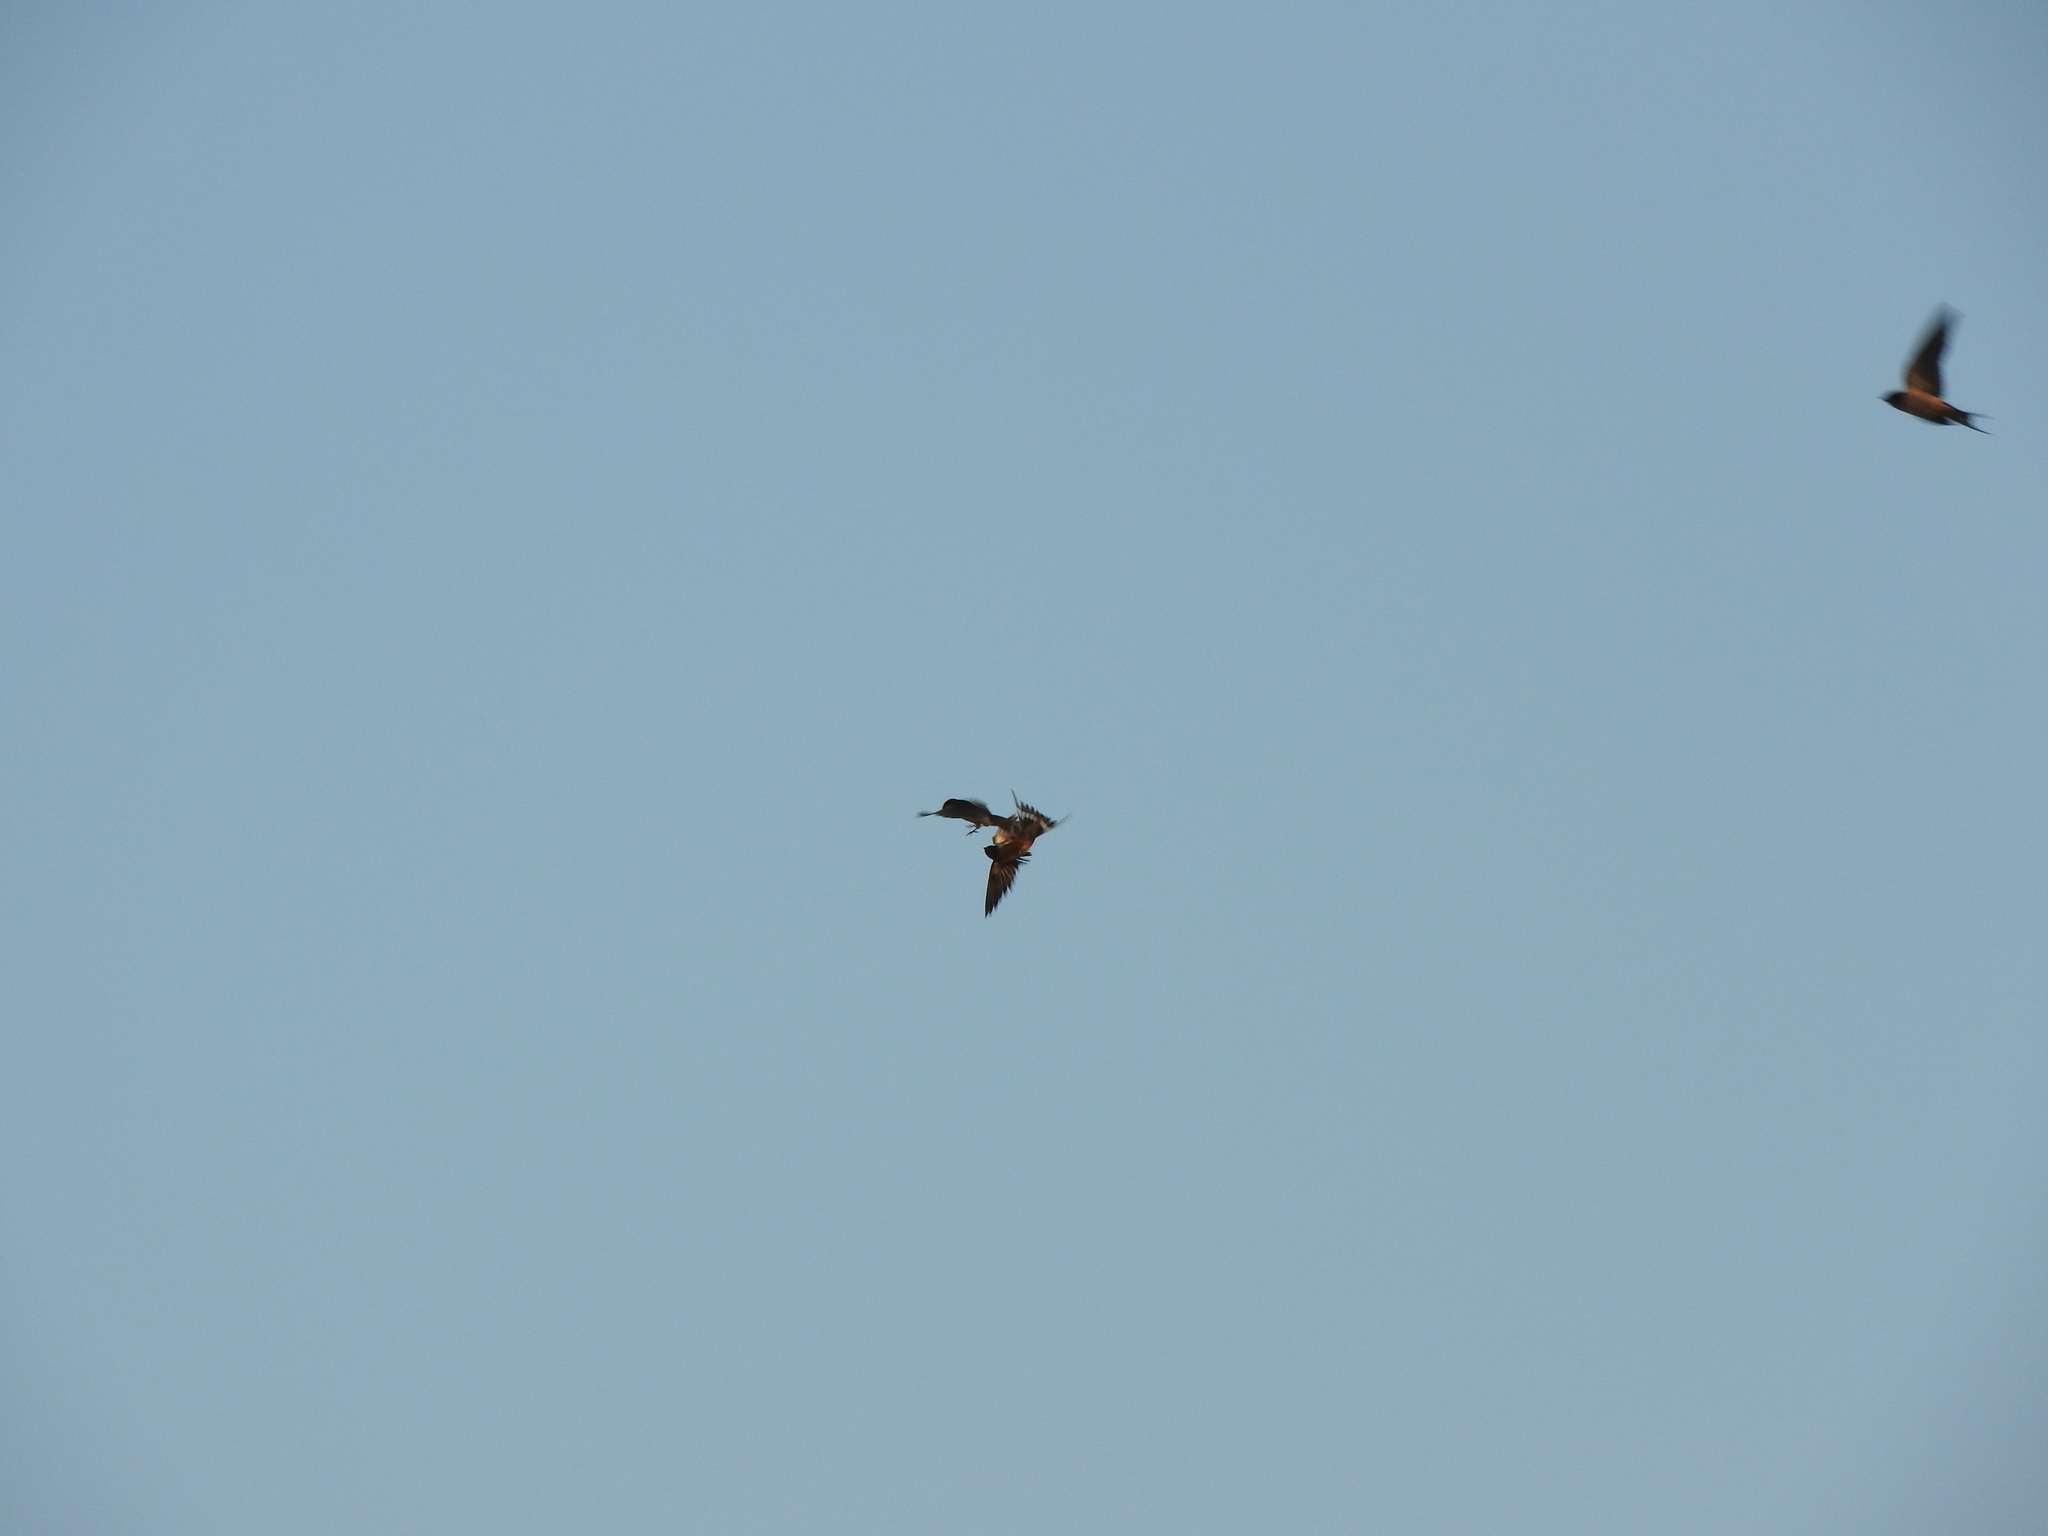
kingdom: Animalia
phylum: Chordata
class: Aves
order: Passeriformes
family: Hirundinidae
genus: Hirundo
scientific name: Hirundo rustica
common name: Barn swallow
